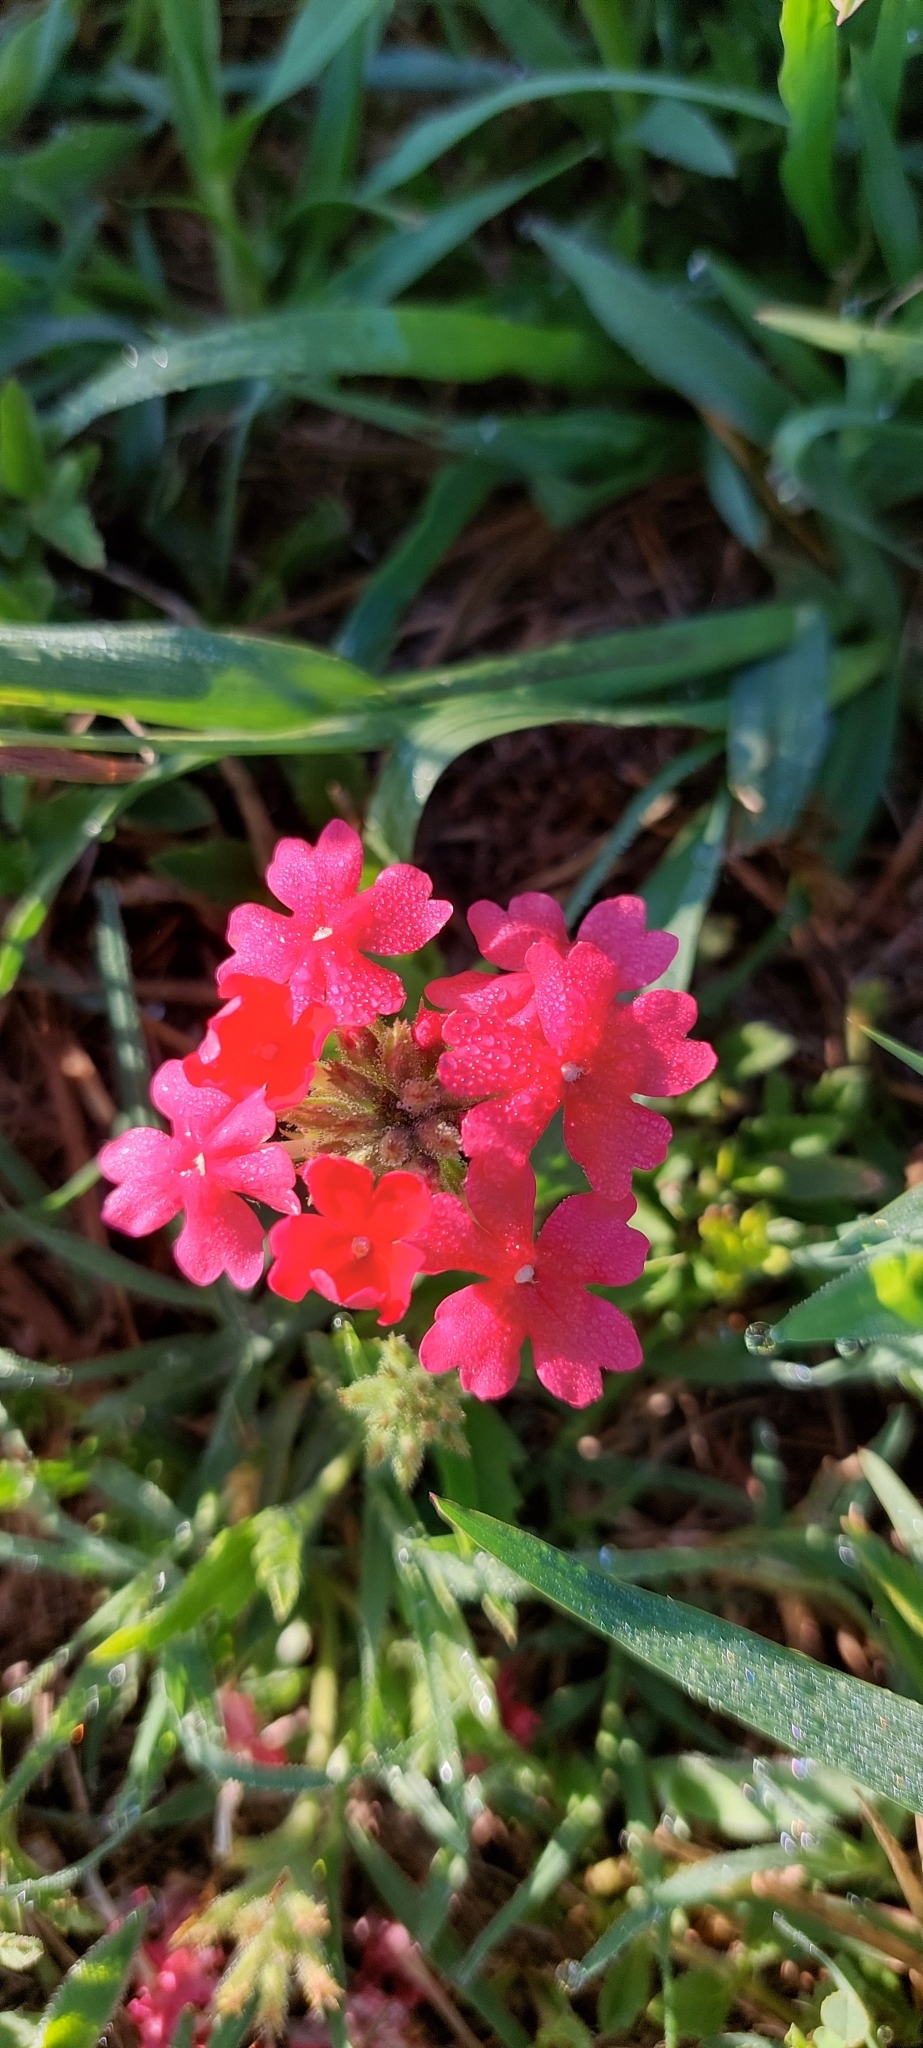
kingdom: Plantae
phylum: Tracheophyta
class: Magnoliopsida
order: Lamiales
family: Verbenaceae
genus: Verbena
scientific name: Verbena peruviana
